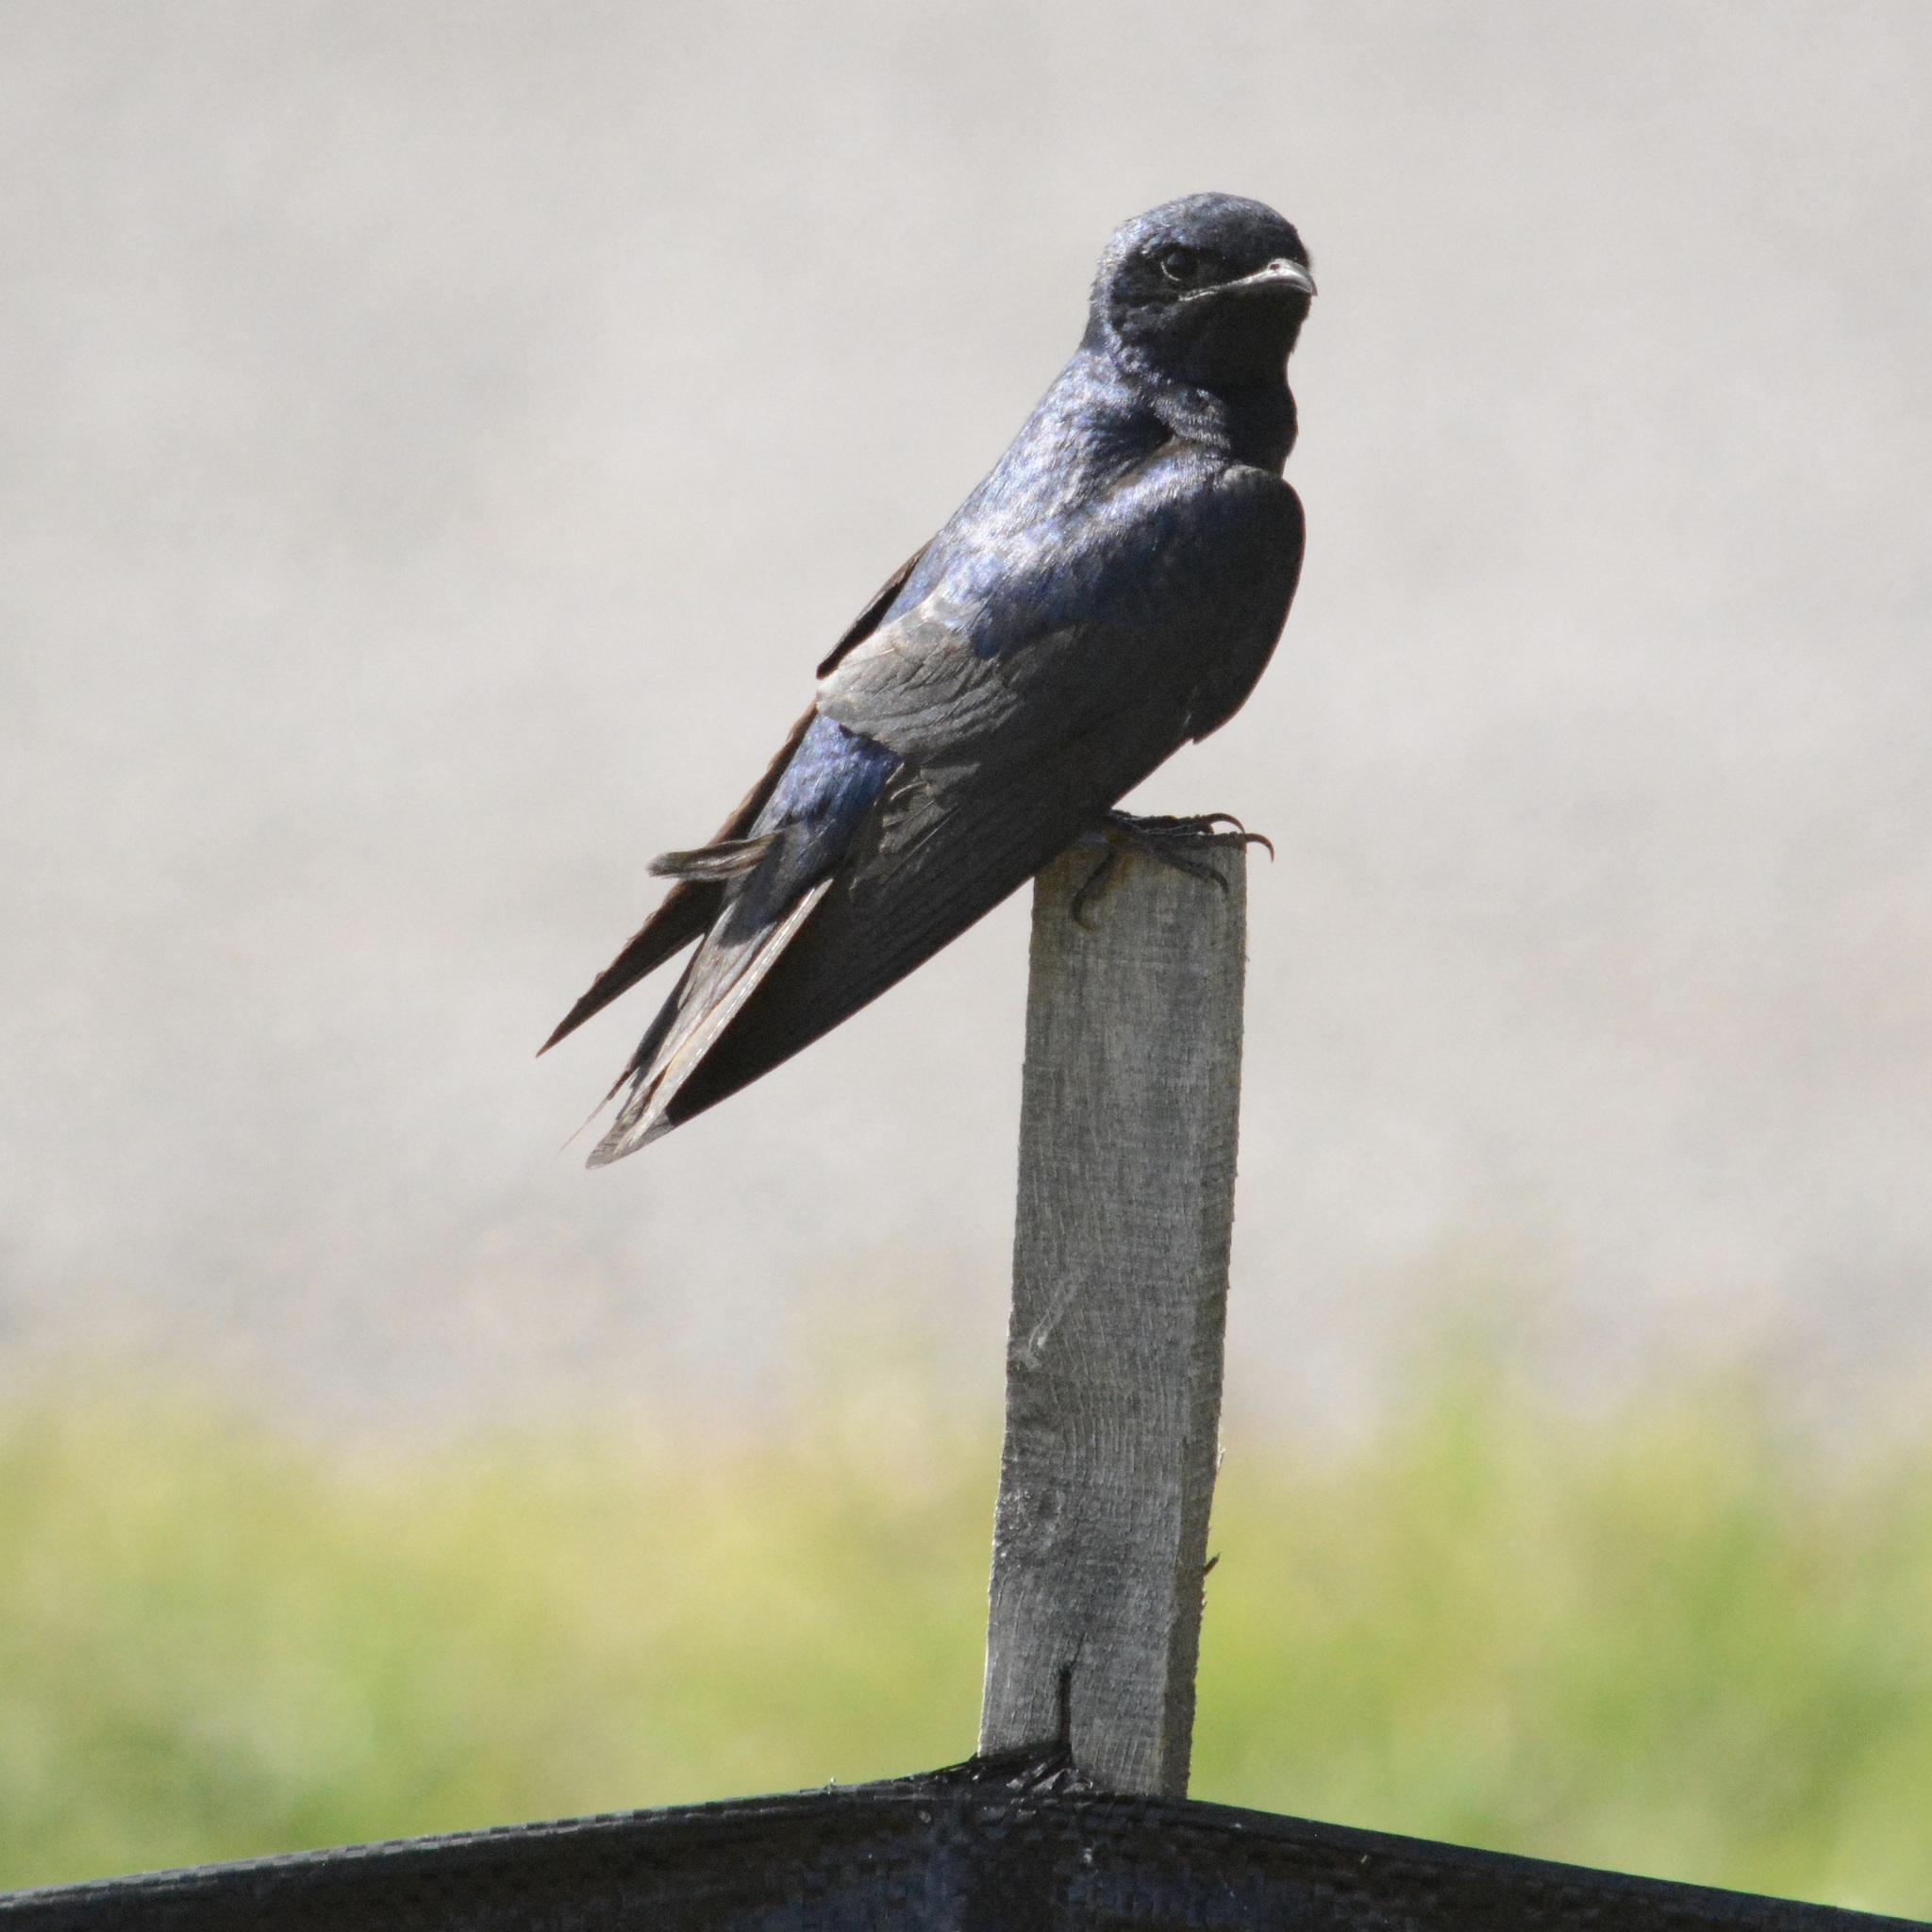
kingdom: Animalia
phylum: Chordata
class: Aves
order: Passeriformes
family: Hirundinidae
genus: Progne
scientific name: Progne subis
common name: Purple martin
